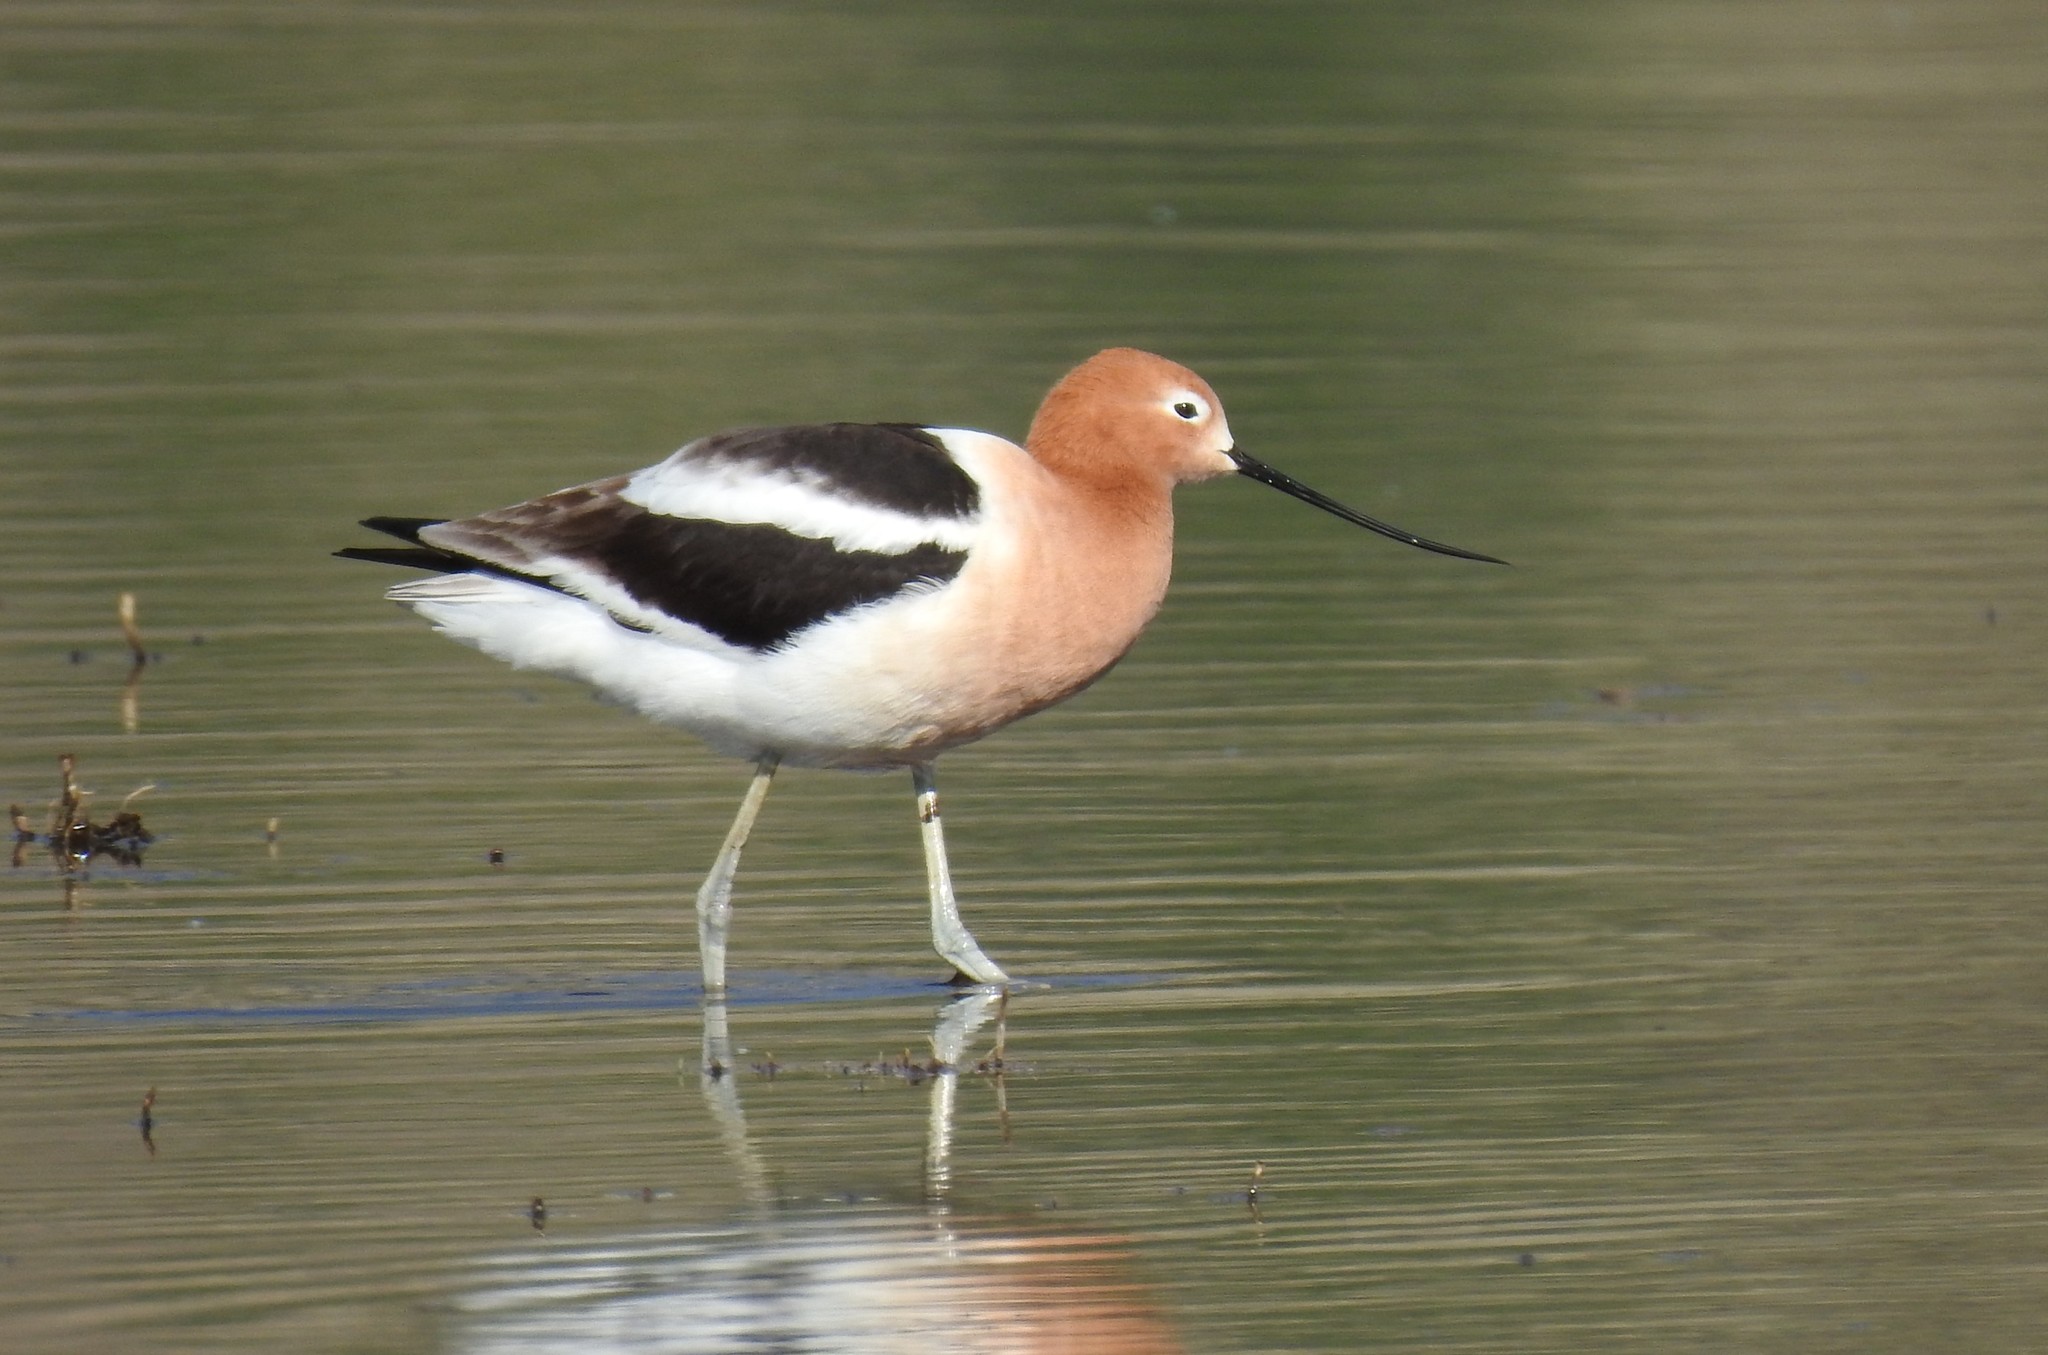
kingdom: Animalia
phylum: Chordata
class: Aves
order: Charadriiformes
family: Recurvirostridae
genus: Recurvirostra
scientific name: Recurvirostra americana
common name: American avocet
